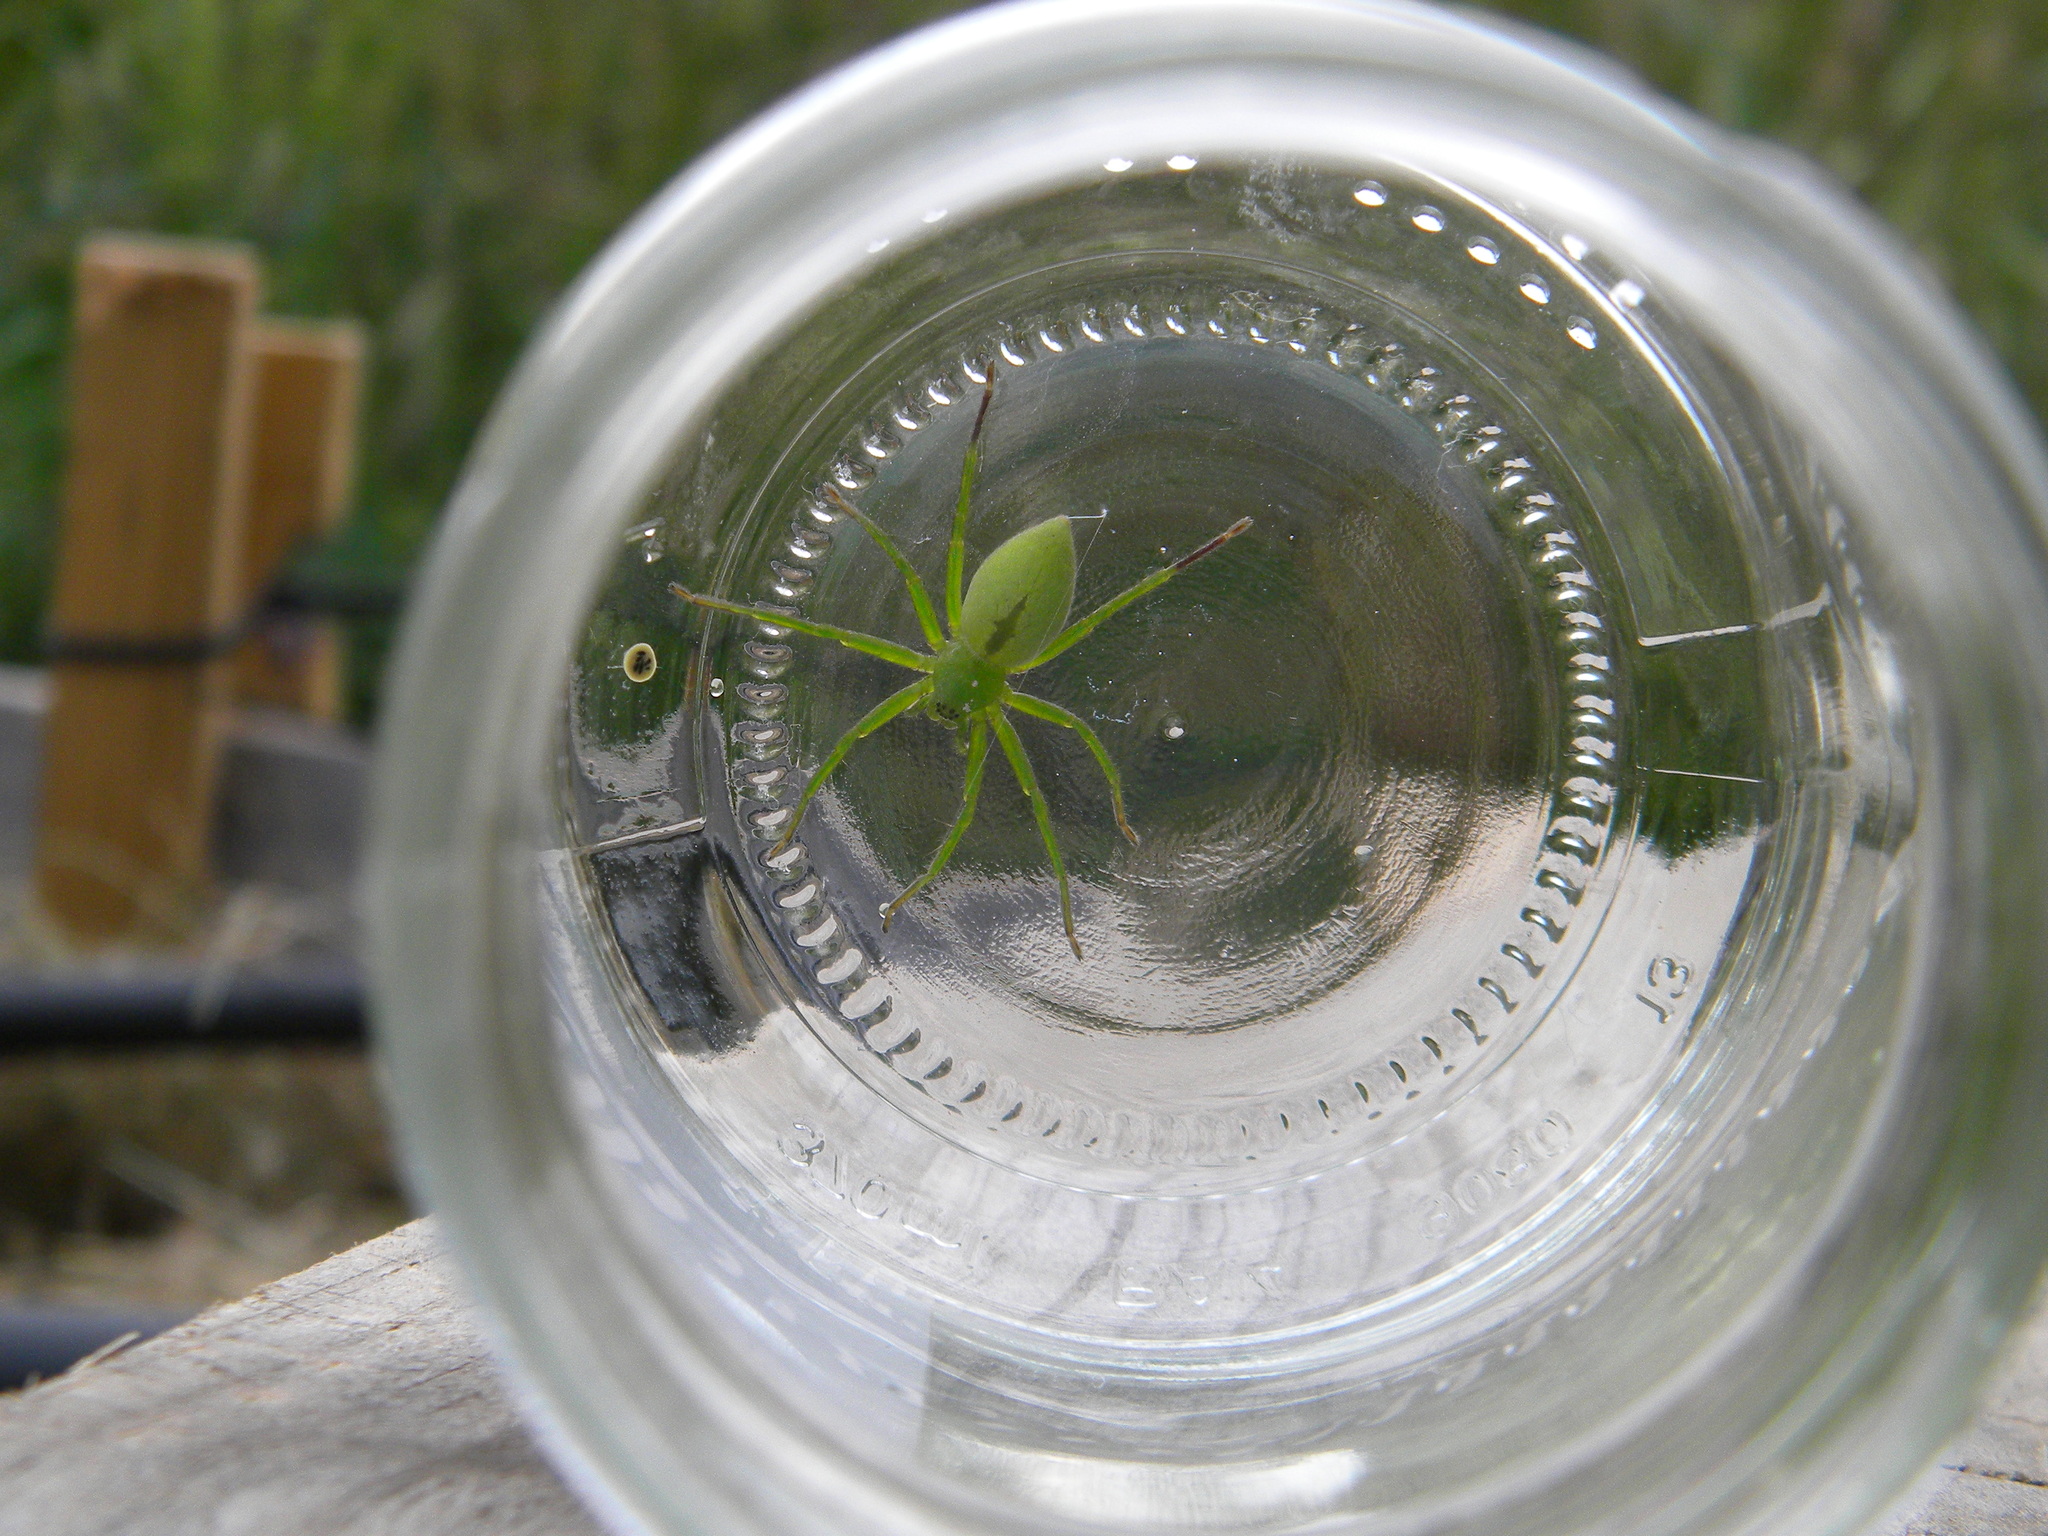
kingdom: Animalia
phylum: Arthropoda
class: Arachnida
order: Araneae
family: Sparassidae
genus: Micrommata
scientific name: Micrommata ligurina
